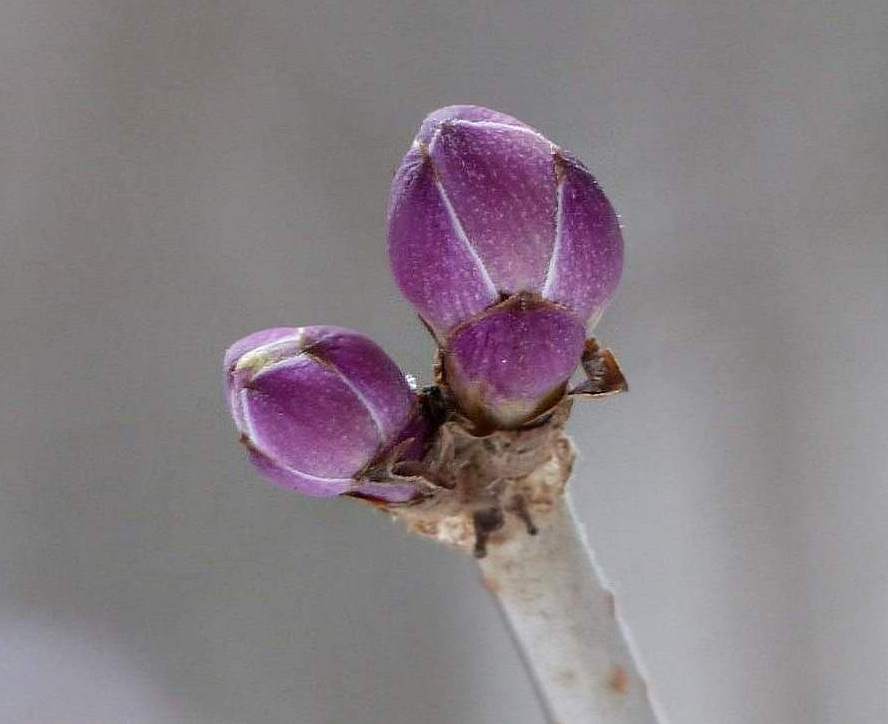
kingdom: Plantae
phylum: Tracheophyta
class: Magnoliopsida
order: Dipsacales
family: Viburnaceae
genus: Sambucus
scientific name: Sambucus racemosa
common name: Red-berried elder
